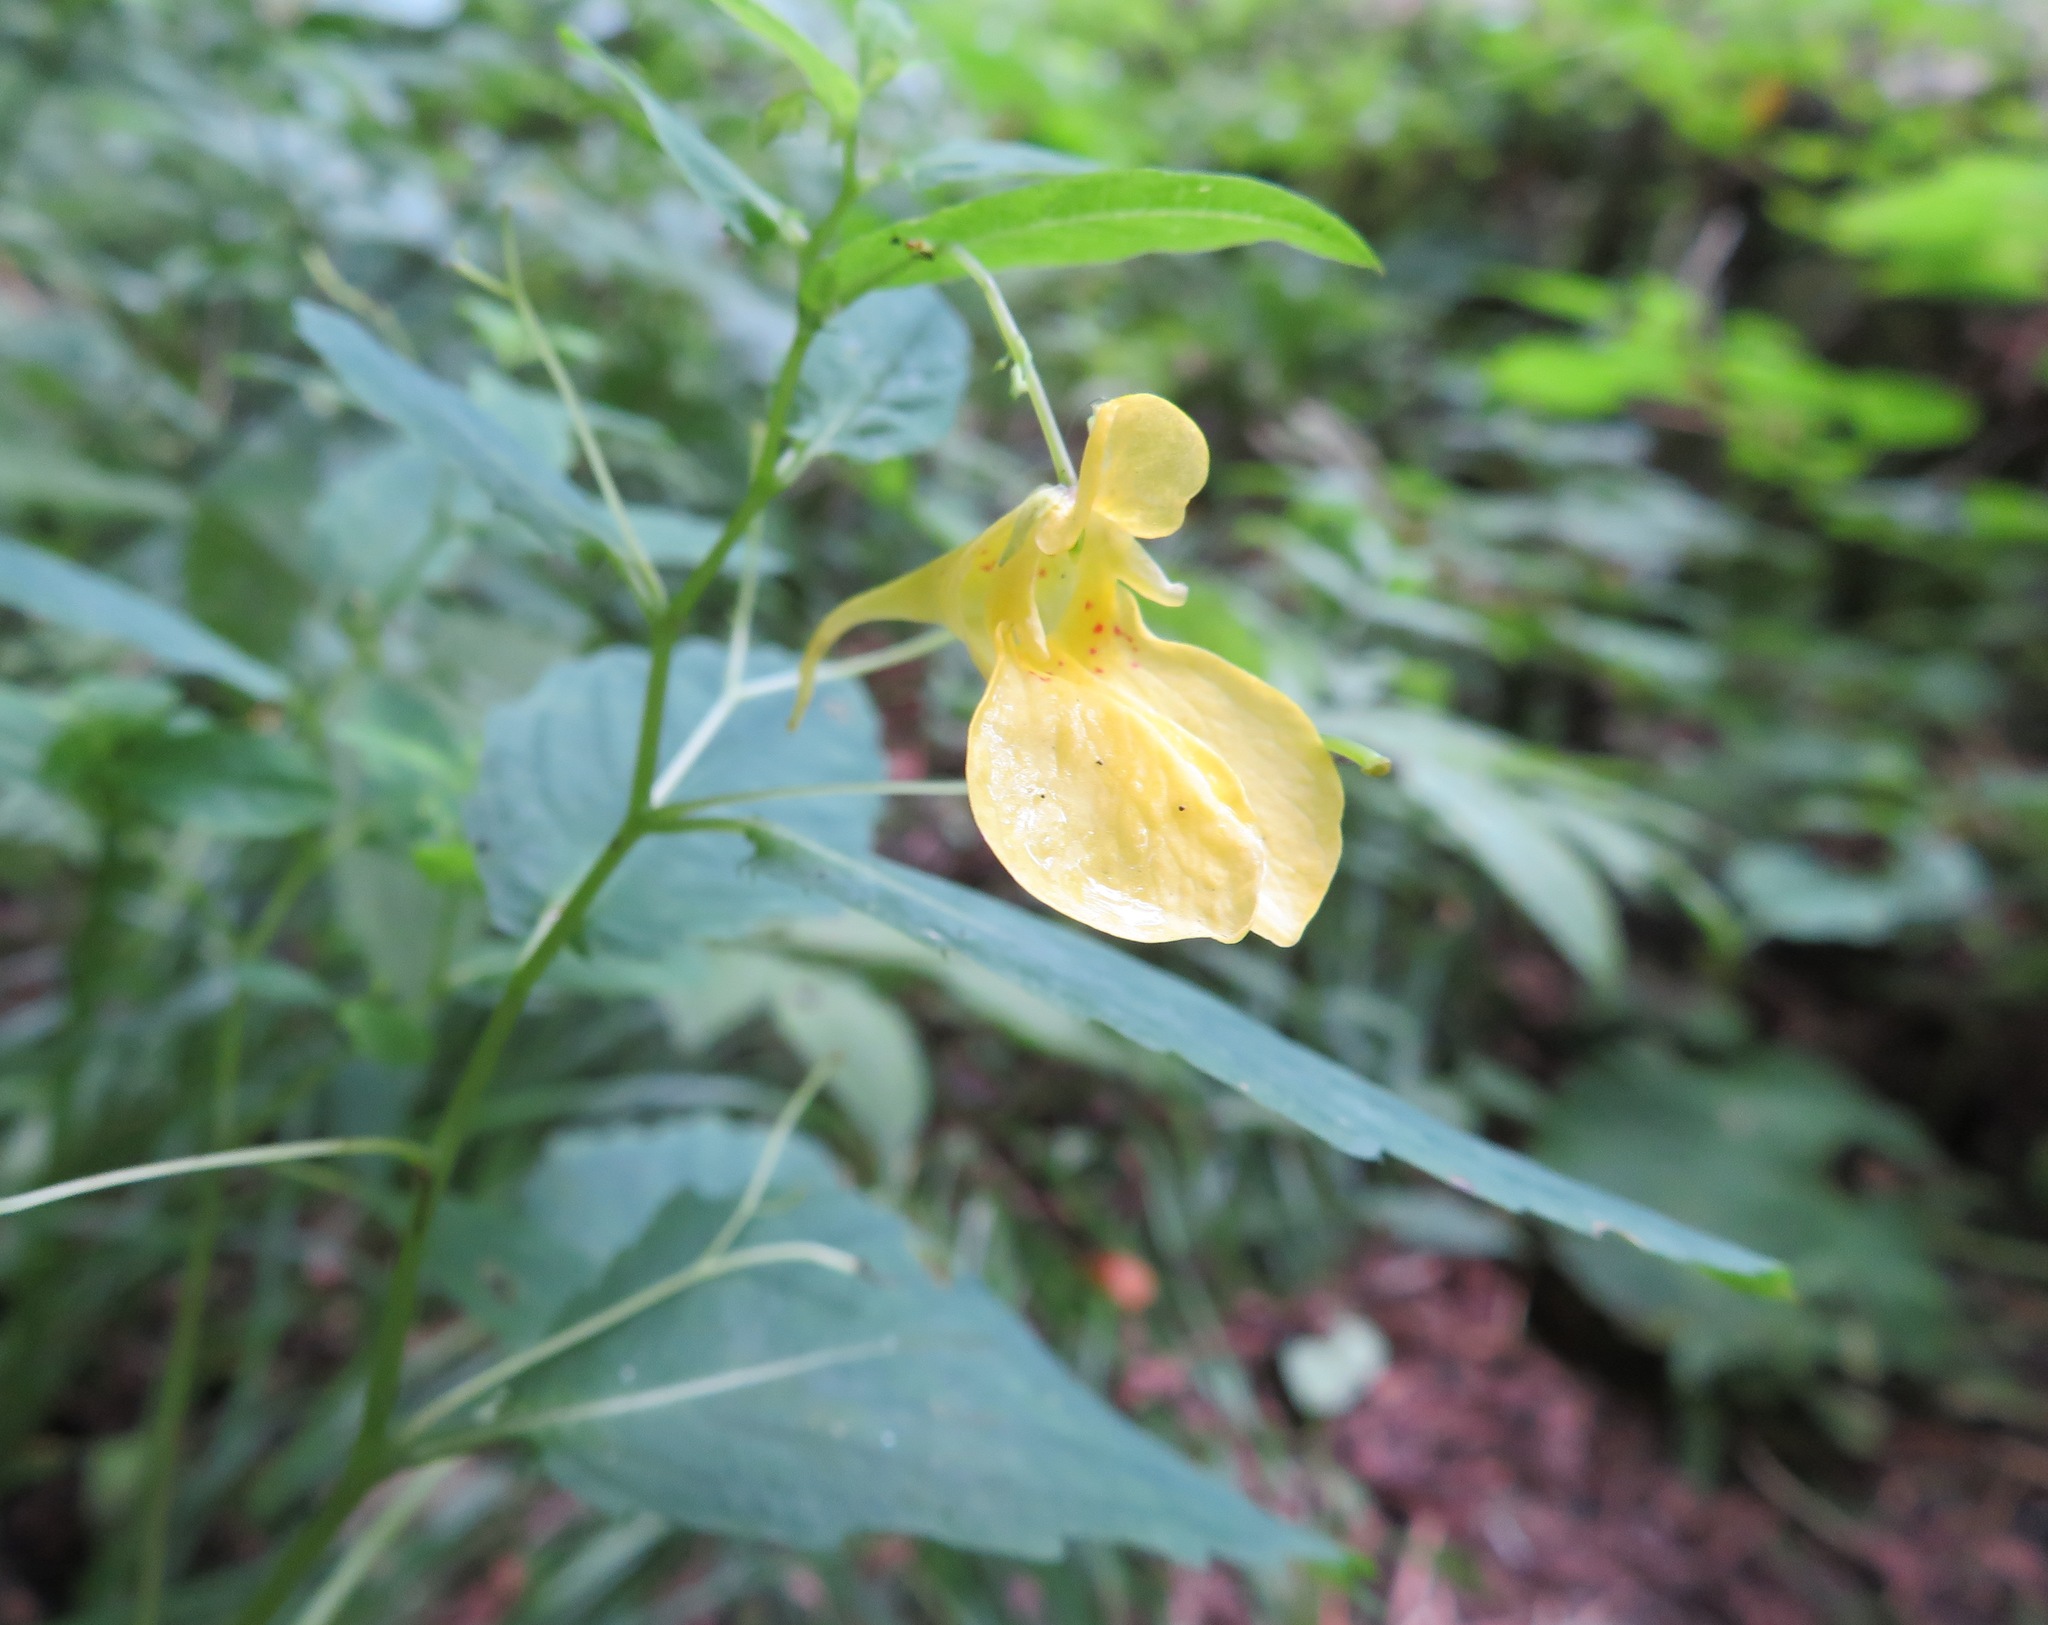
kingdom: Plantae
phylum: Tracheophyta
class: Magnoliopsida
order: Ericales
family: Balsaminaceae
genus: Impatiens
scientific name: Impatiens noli-tangere
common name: Touch-me-not balsam
